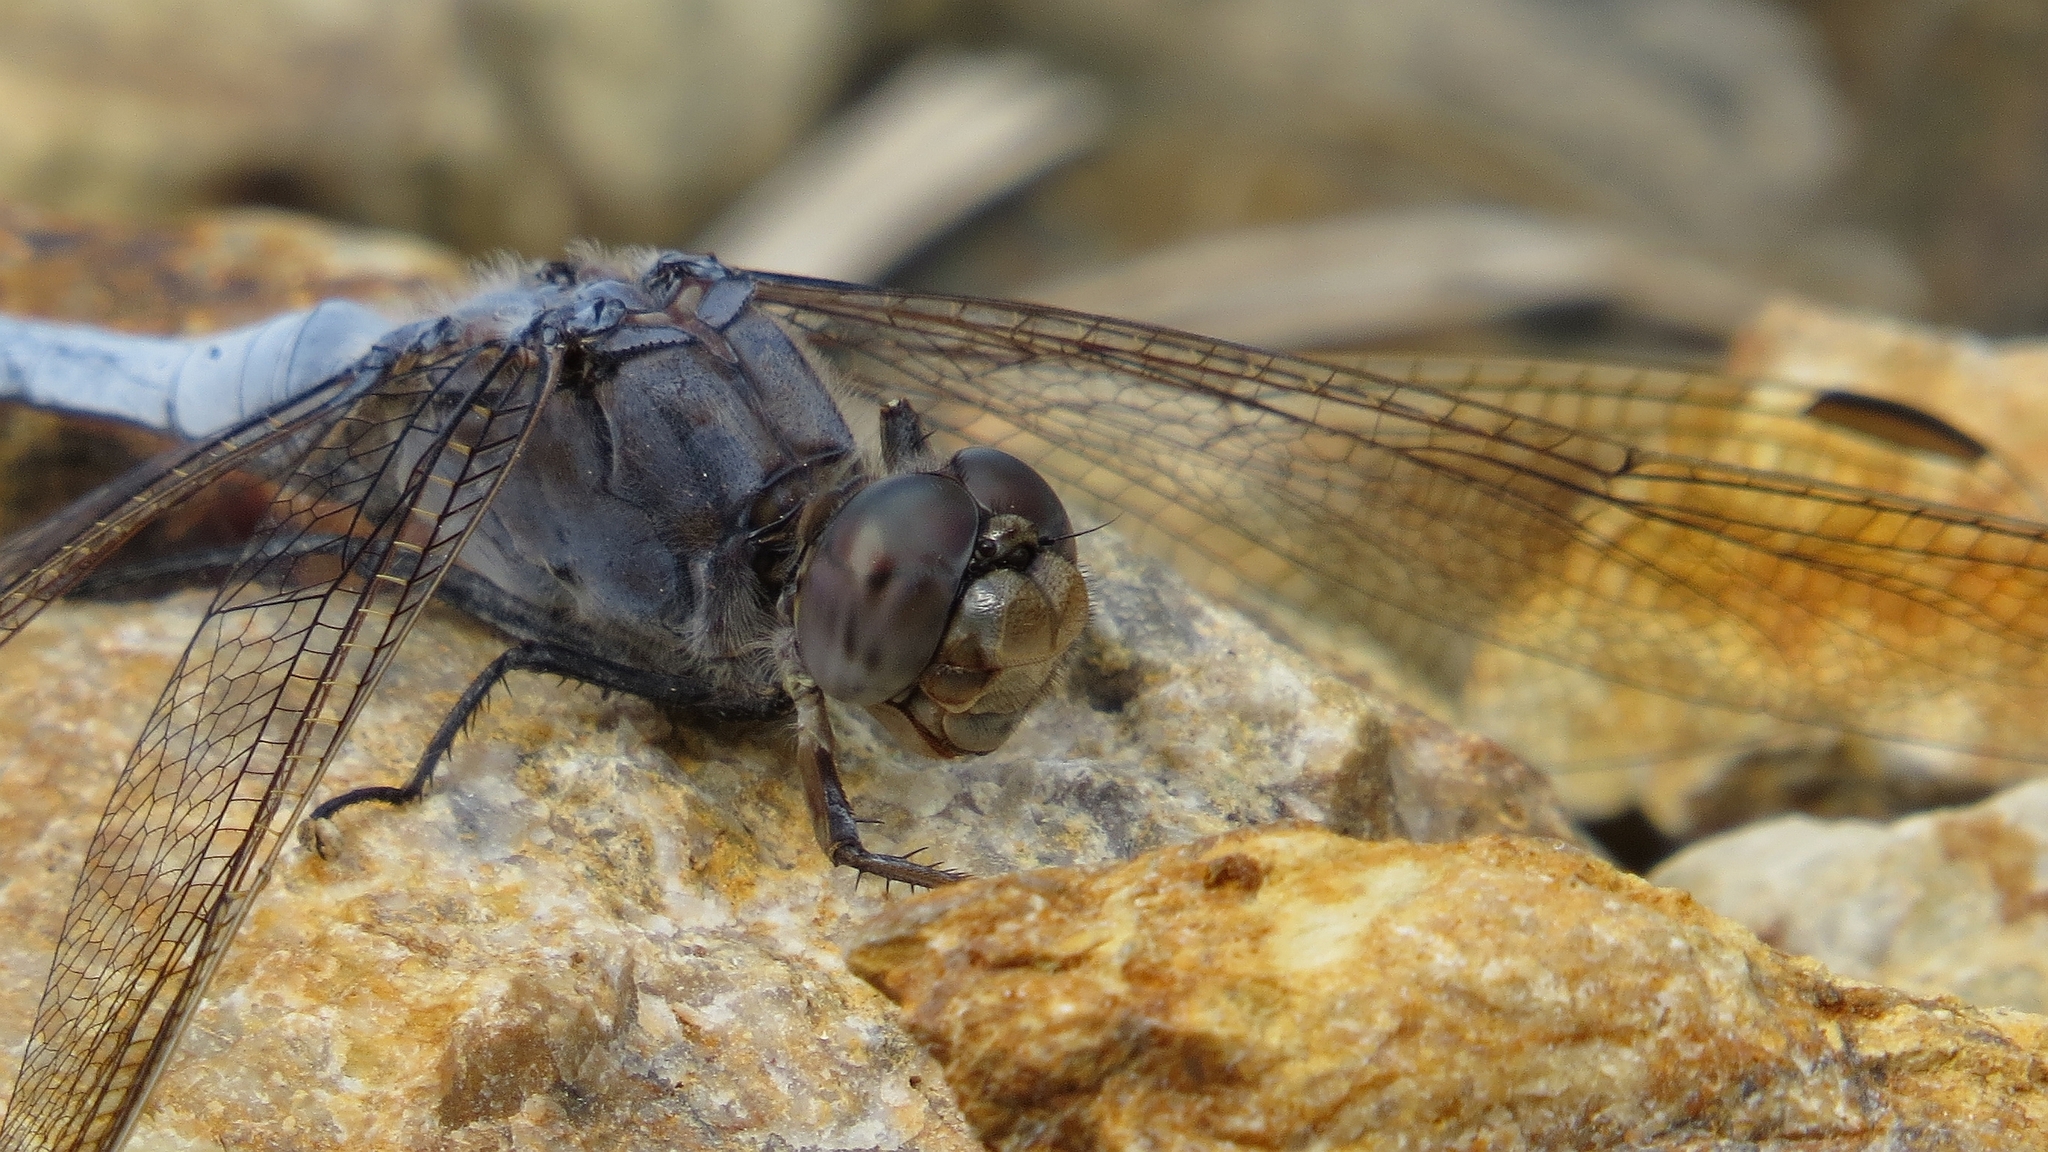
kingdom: Animalia
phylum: Arthropoda
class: Insecta
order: Odonata
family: Libellulidae
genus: Orthetrum
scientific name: Orthetrum caledonicum
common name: Blue skimmer
